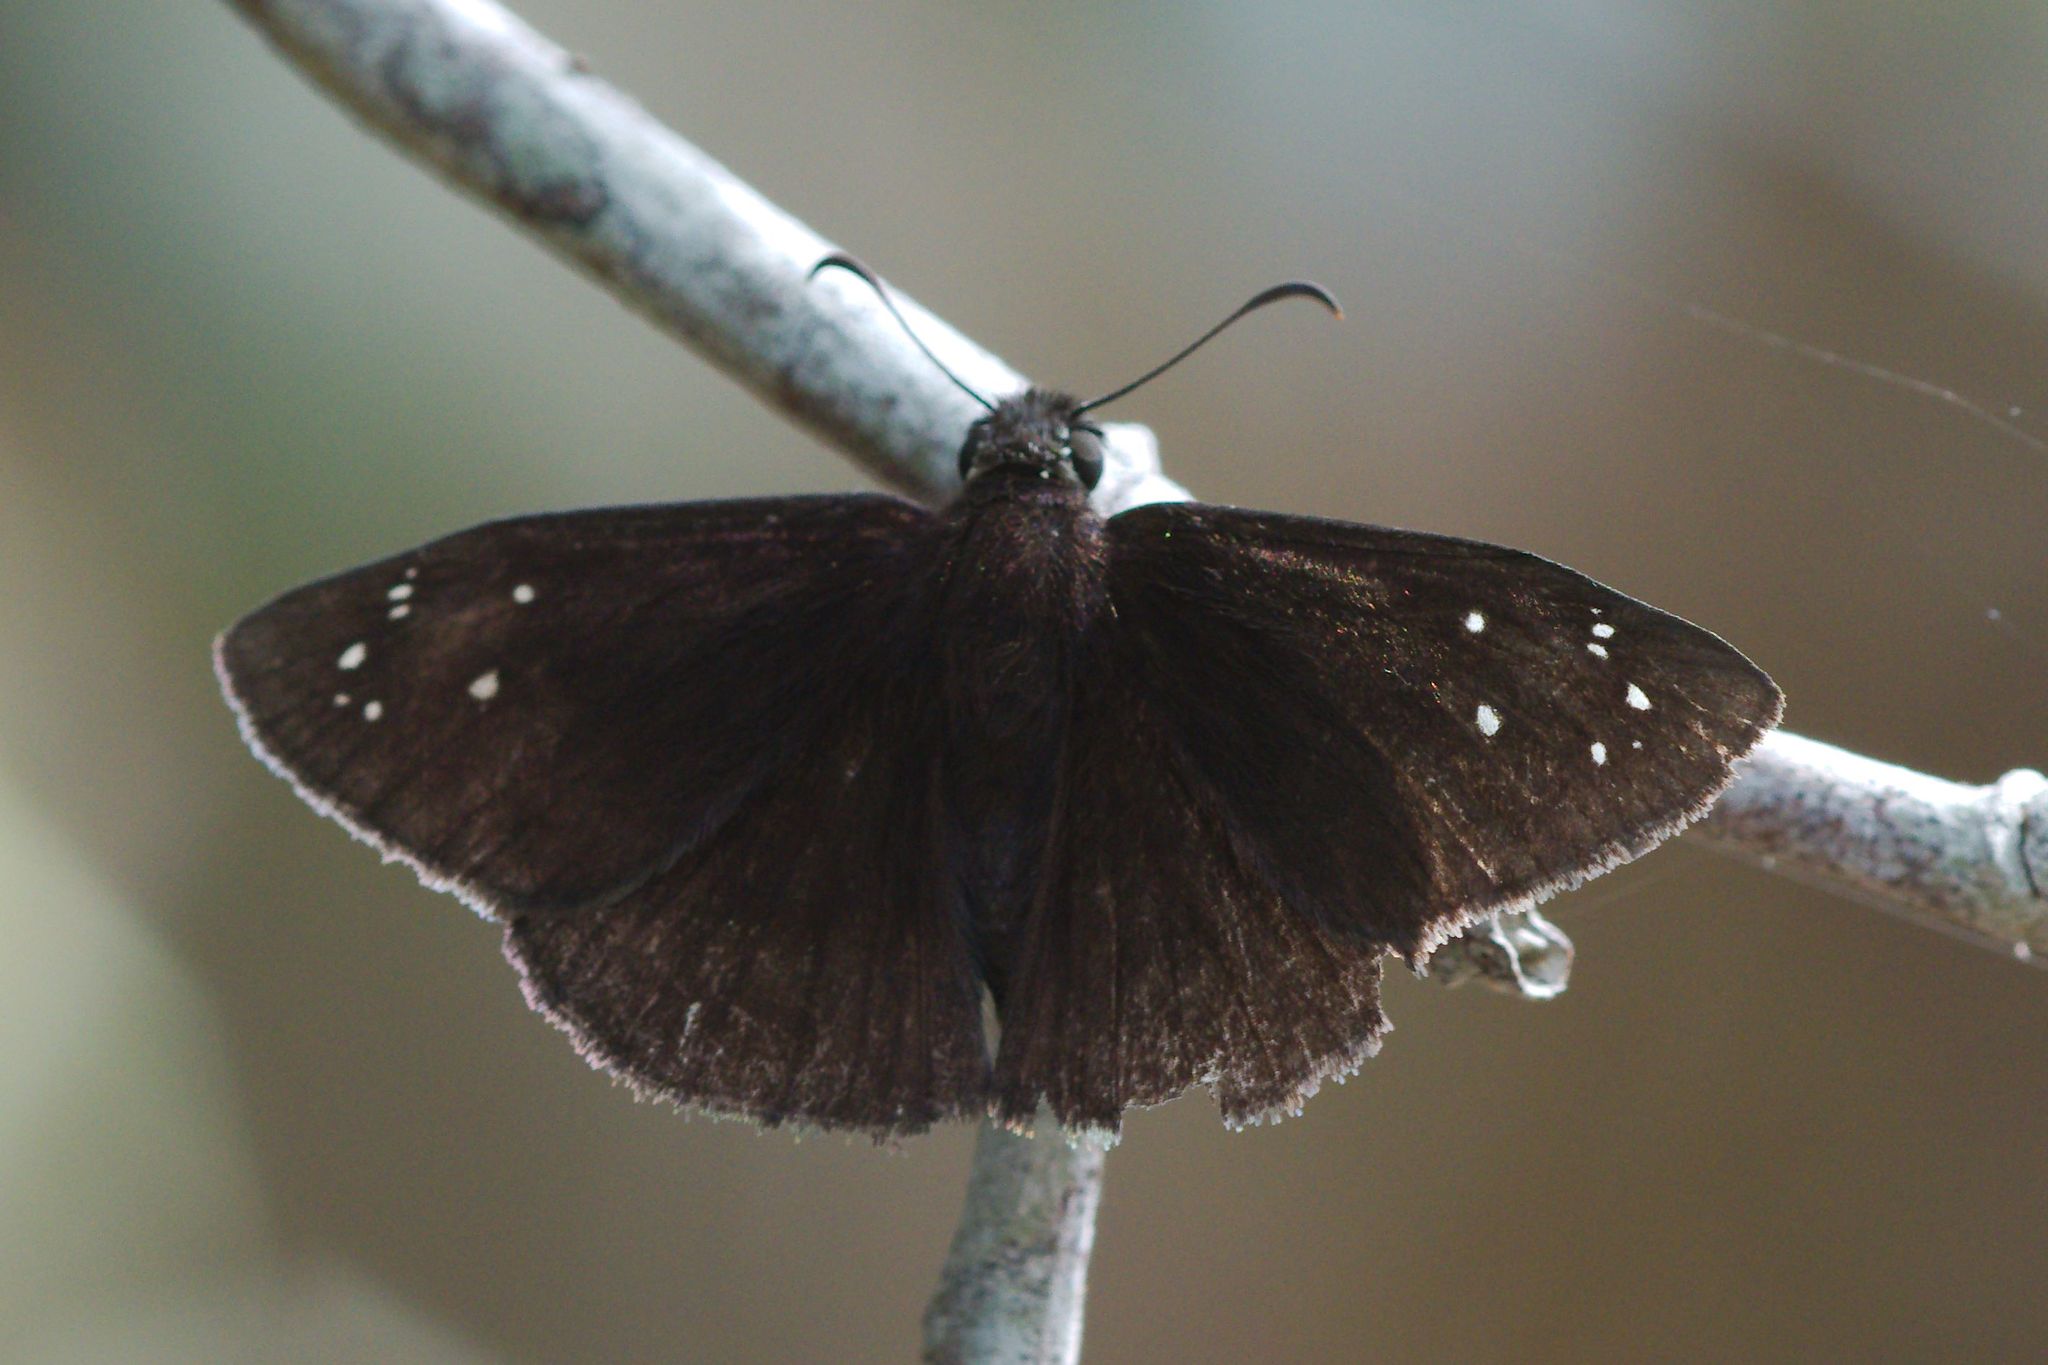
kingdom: Animalia
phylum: Arthropoda
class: Insecta
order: Lepidoptera
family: Hesperiidae
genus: Ephyriades
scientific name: Ephyriades brunnea
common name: Florida duskywing
